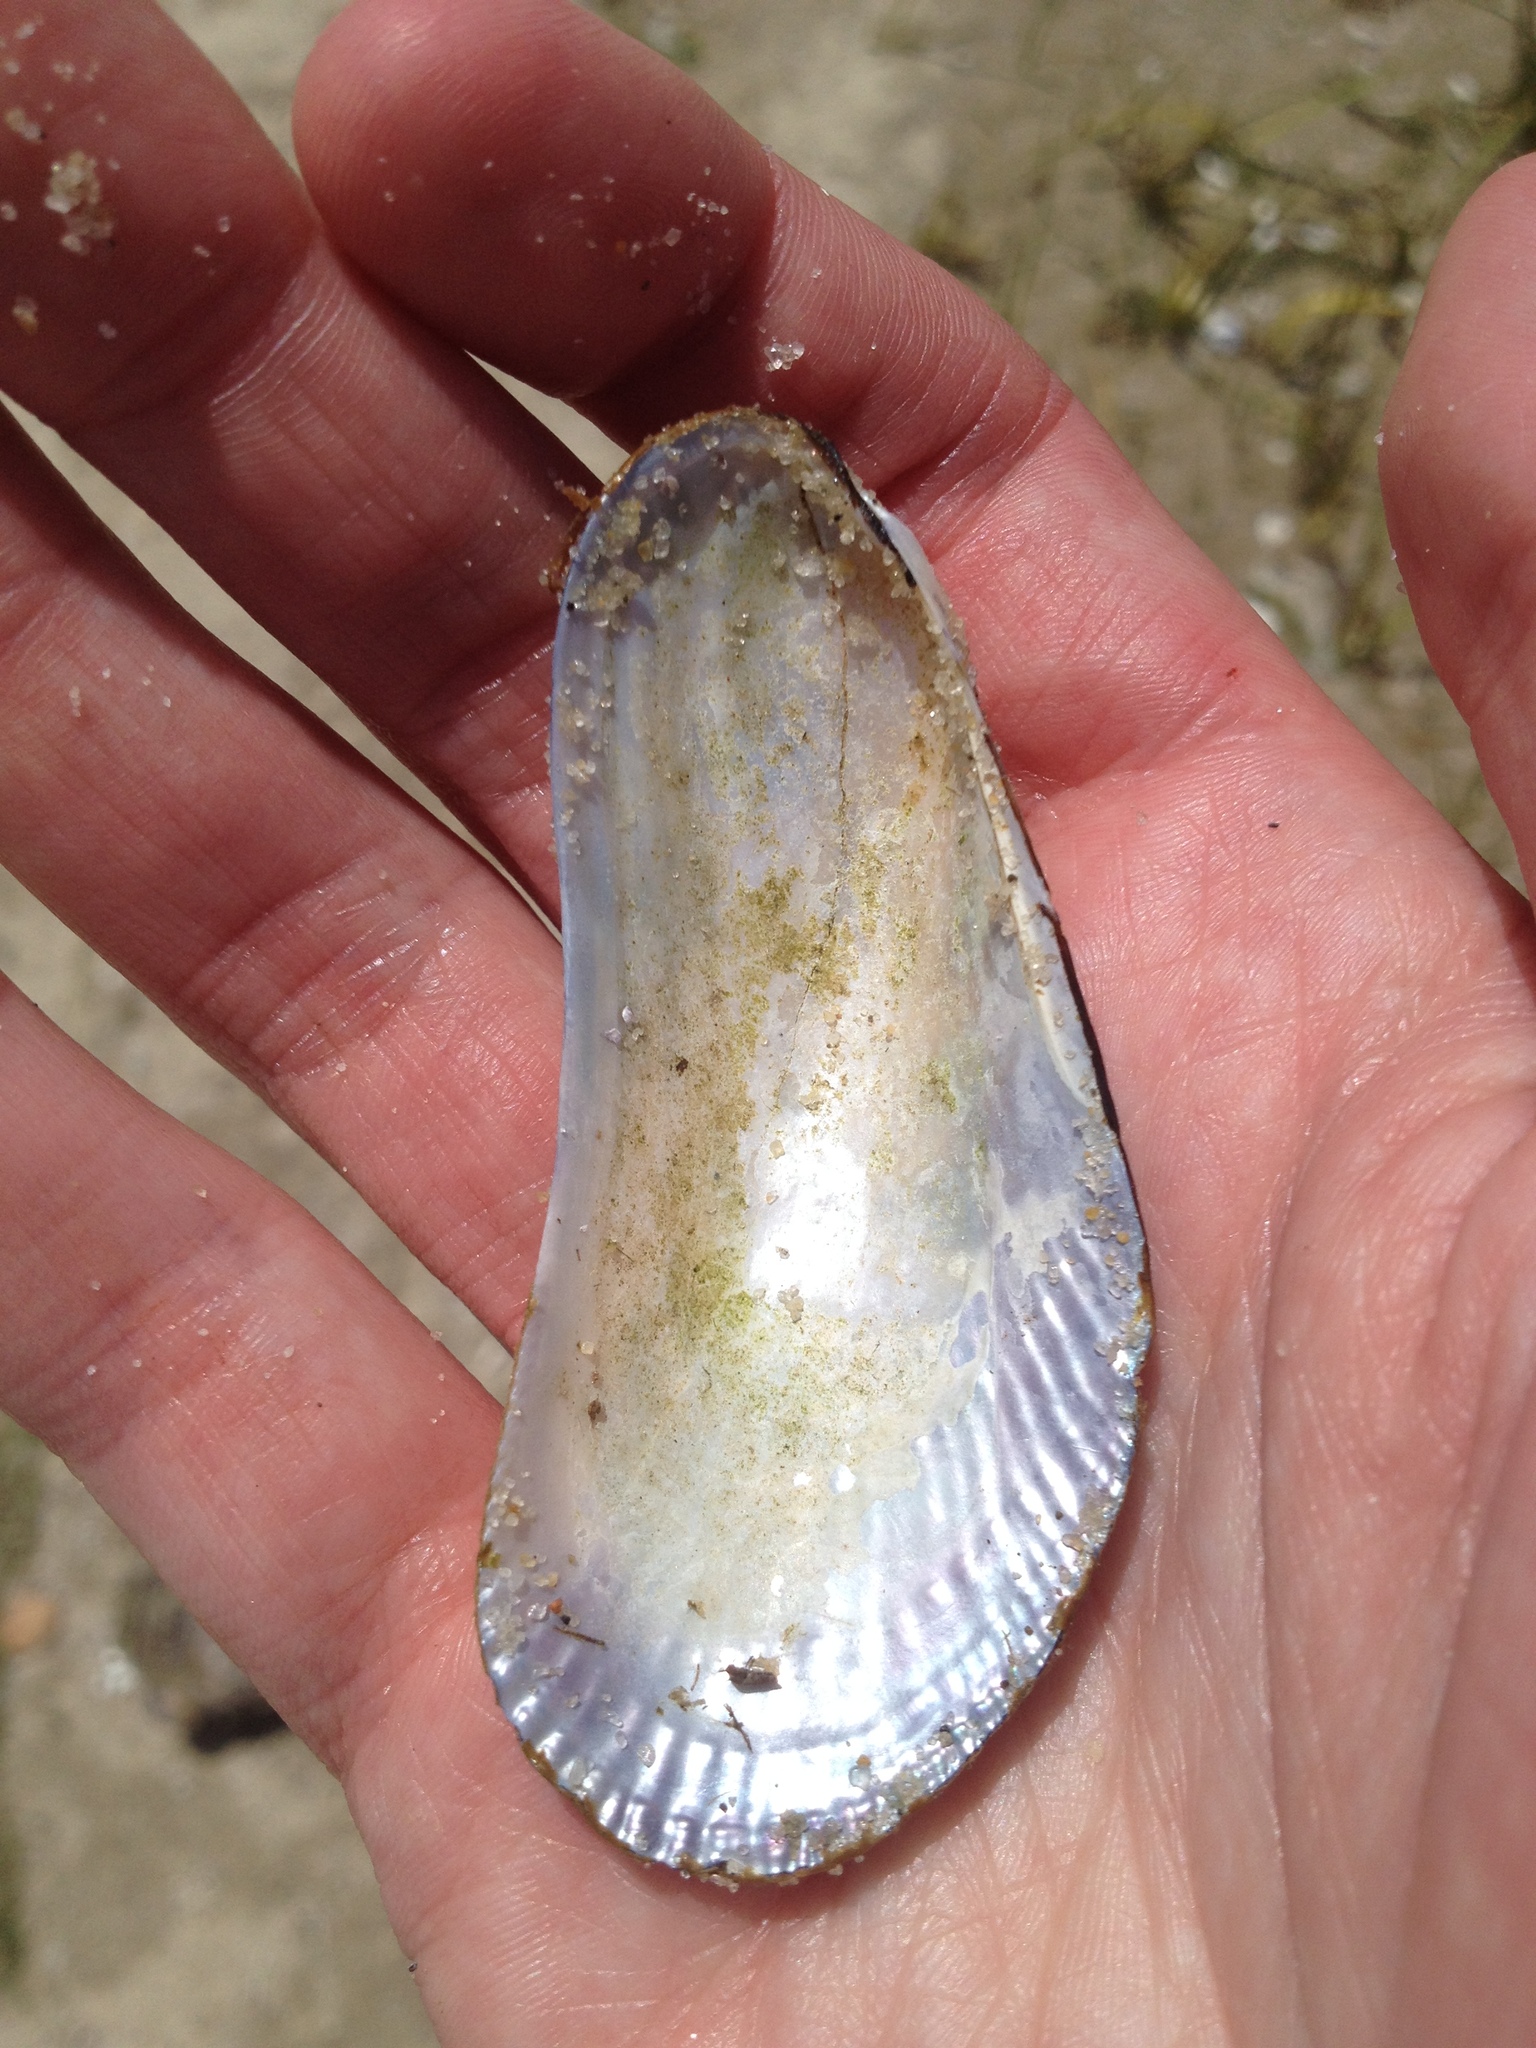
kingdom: Animalia
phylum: Mollusca
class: Bivalvia
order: Mytilida
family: Mytilidae
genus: Geukensia
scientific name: Geukensia demissa
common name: Ribbed mussel
